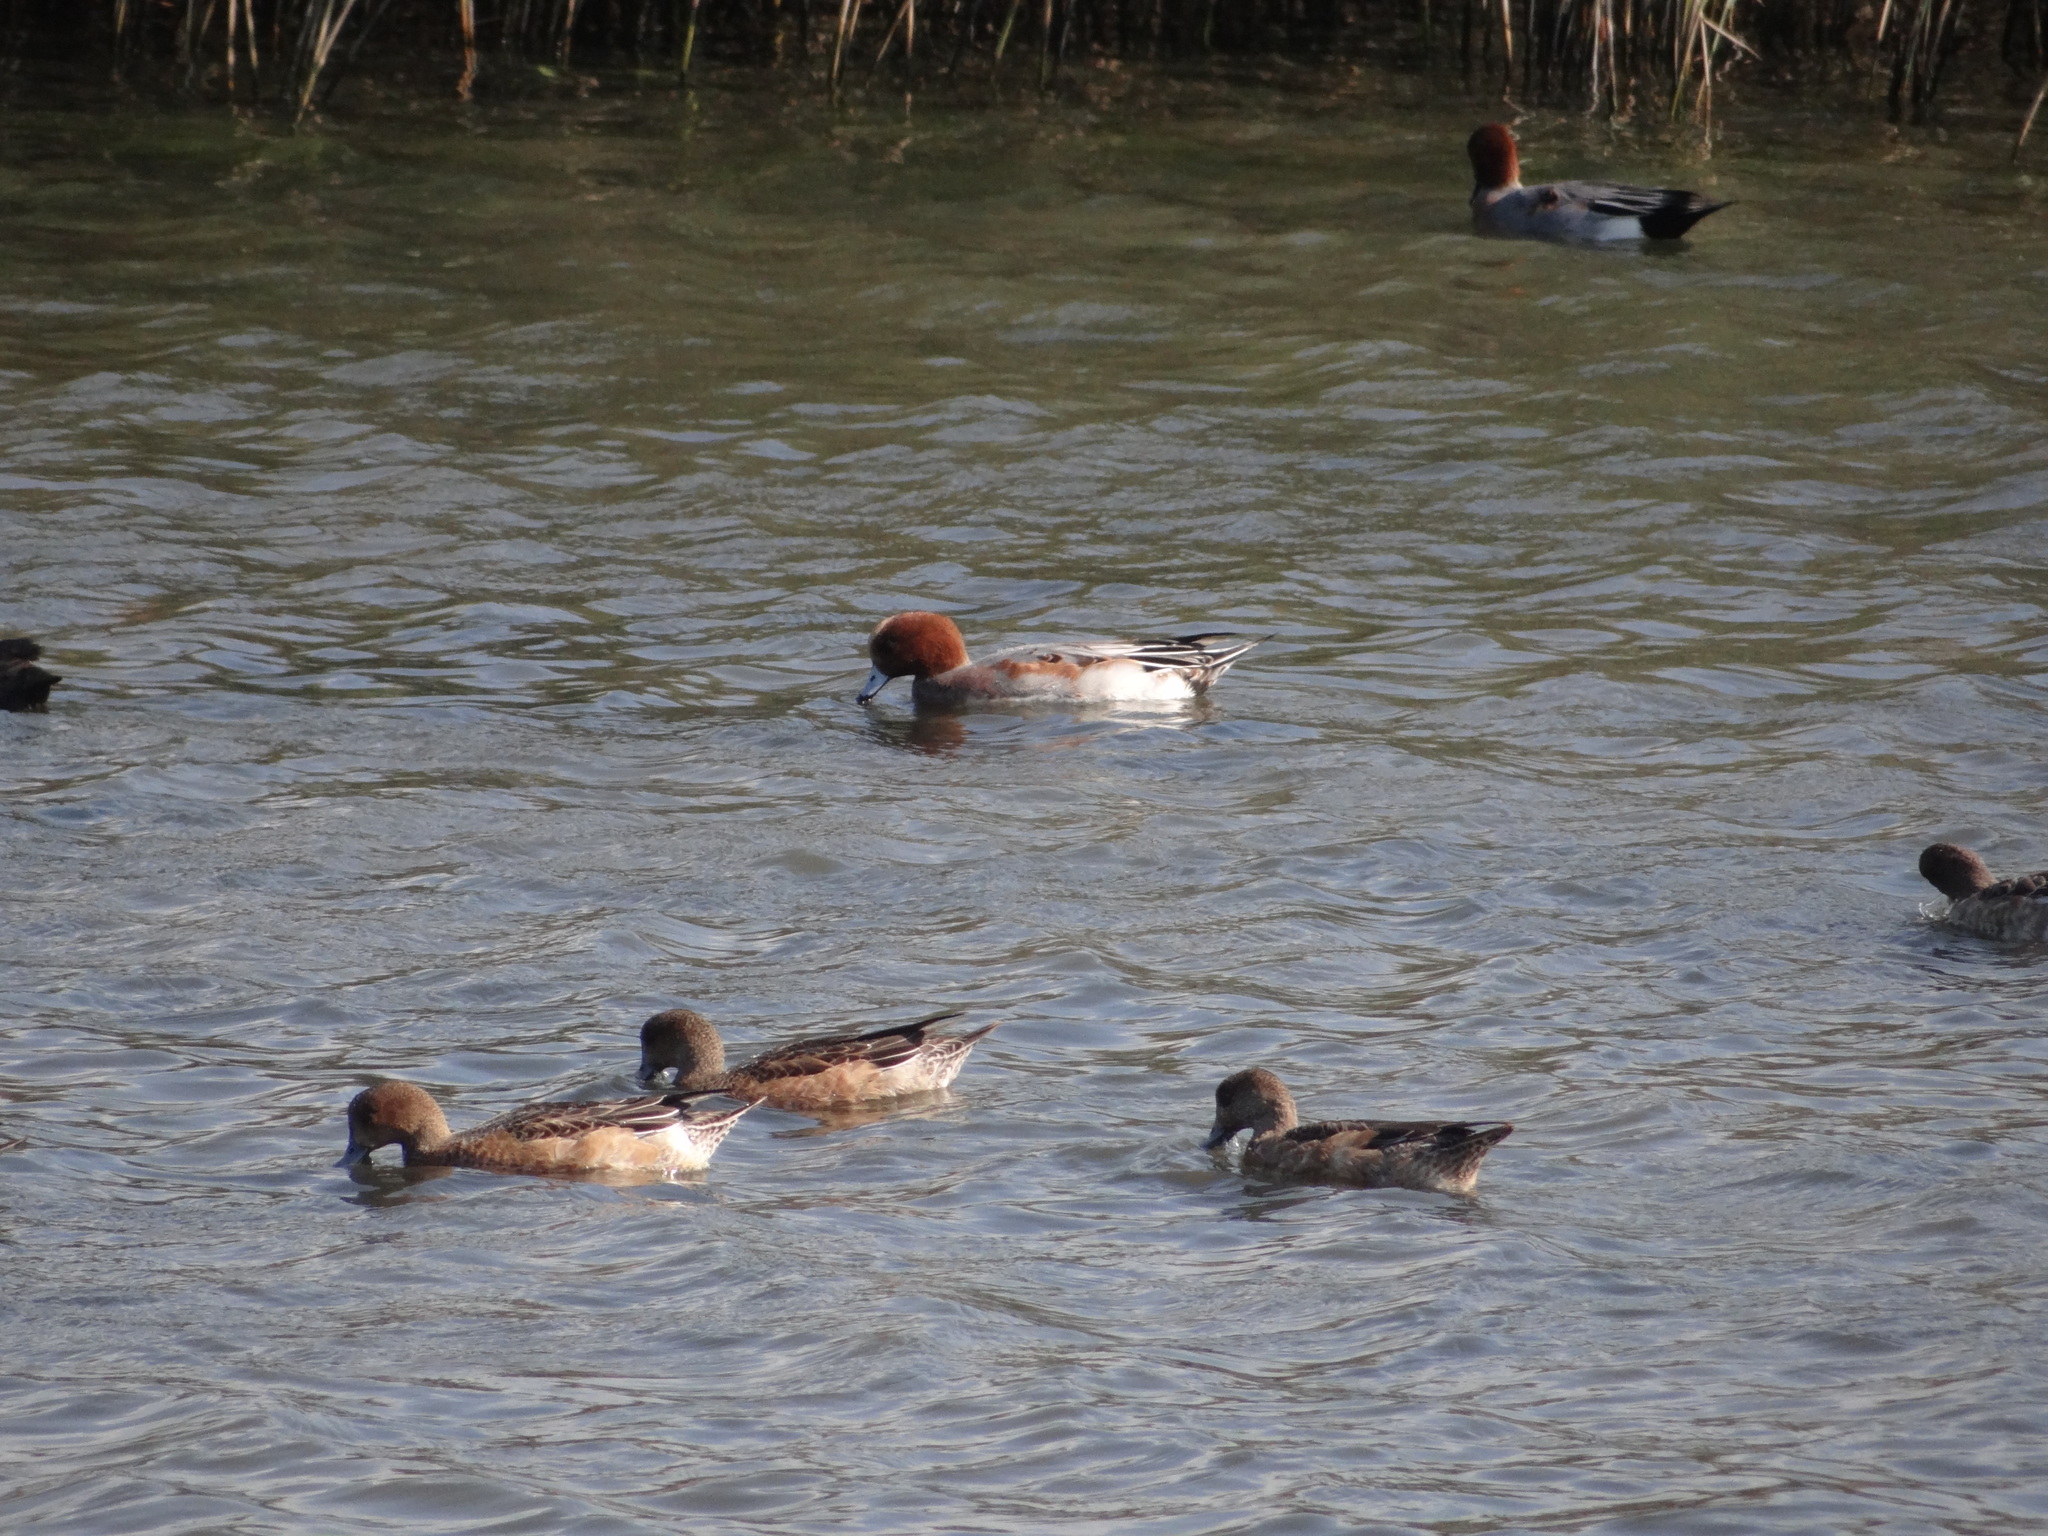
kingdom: Animalia
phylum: Chordata
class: Aves
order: Anseriformes
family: Anatidae
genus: Mareca
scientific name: Mareca penelope
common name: Eurasian wigeon
